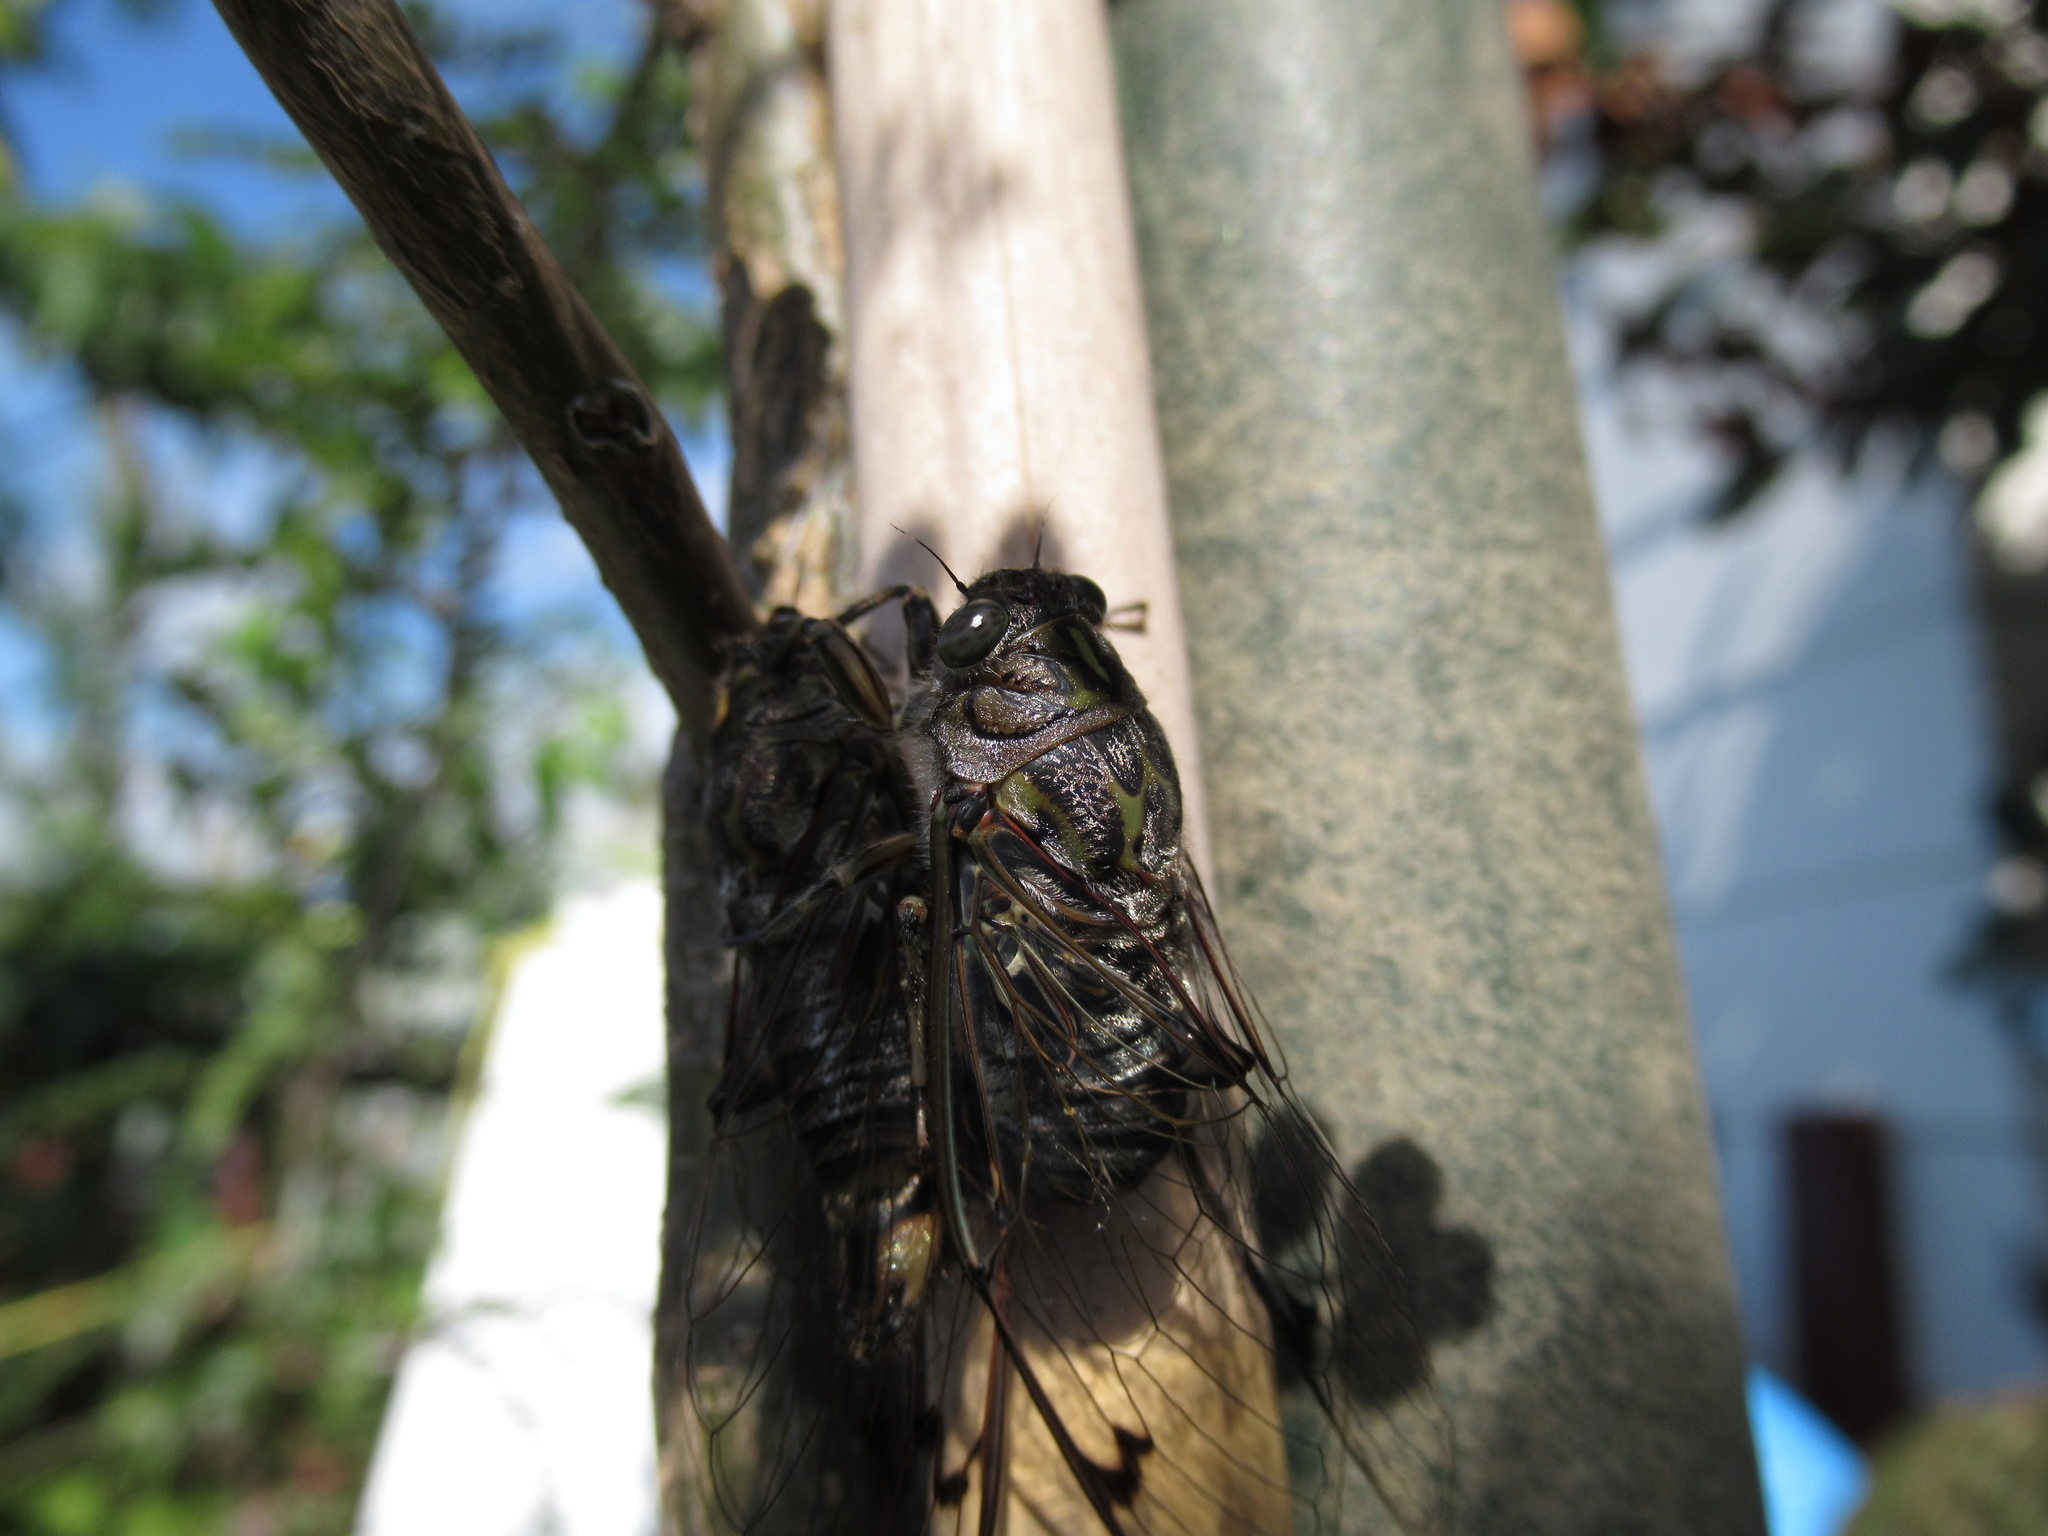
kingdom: Animalia
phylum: Arthropoda
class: Insecta
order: Hemiptera
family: Cicadidae
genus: Amphipsalta
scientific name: Amphipsalta cingulata
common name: Clapping cicada
